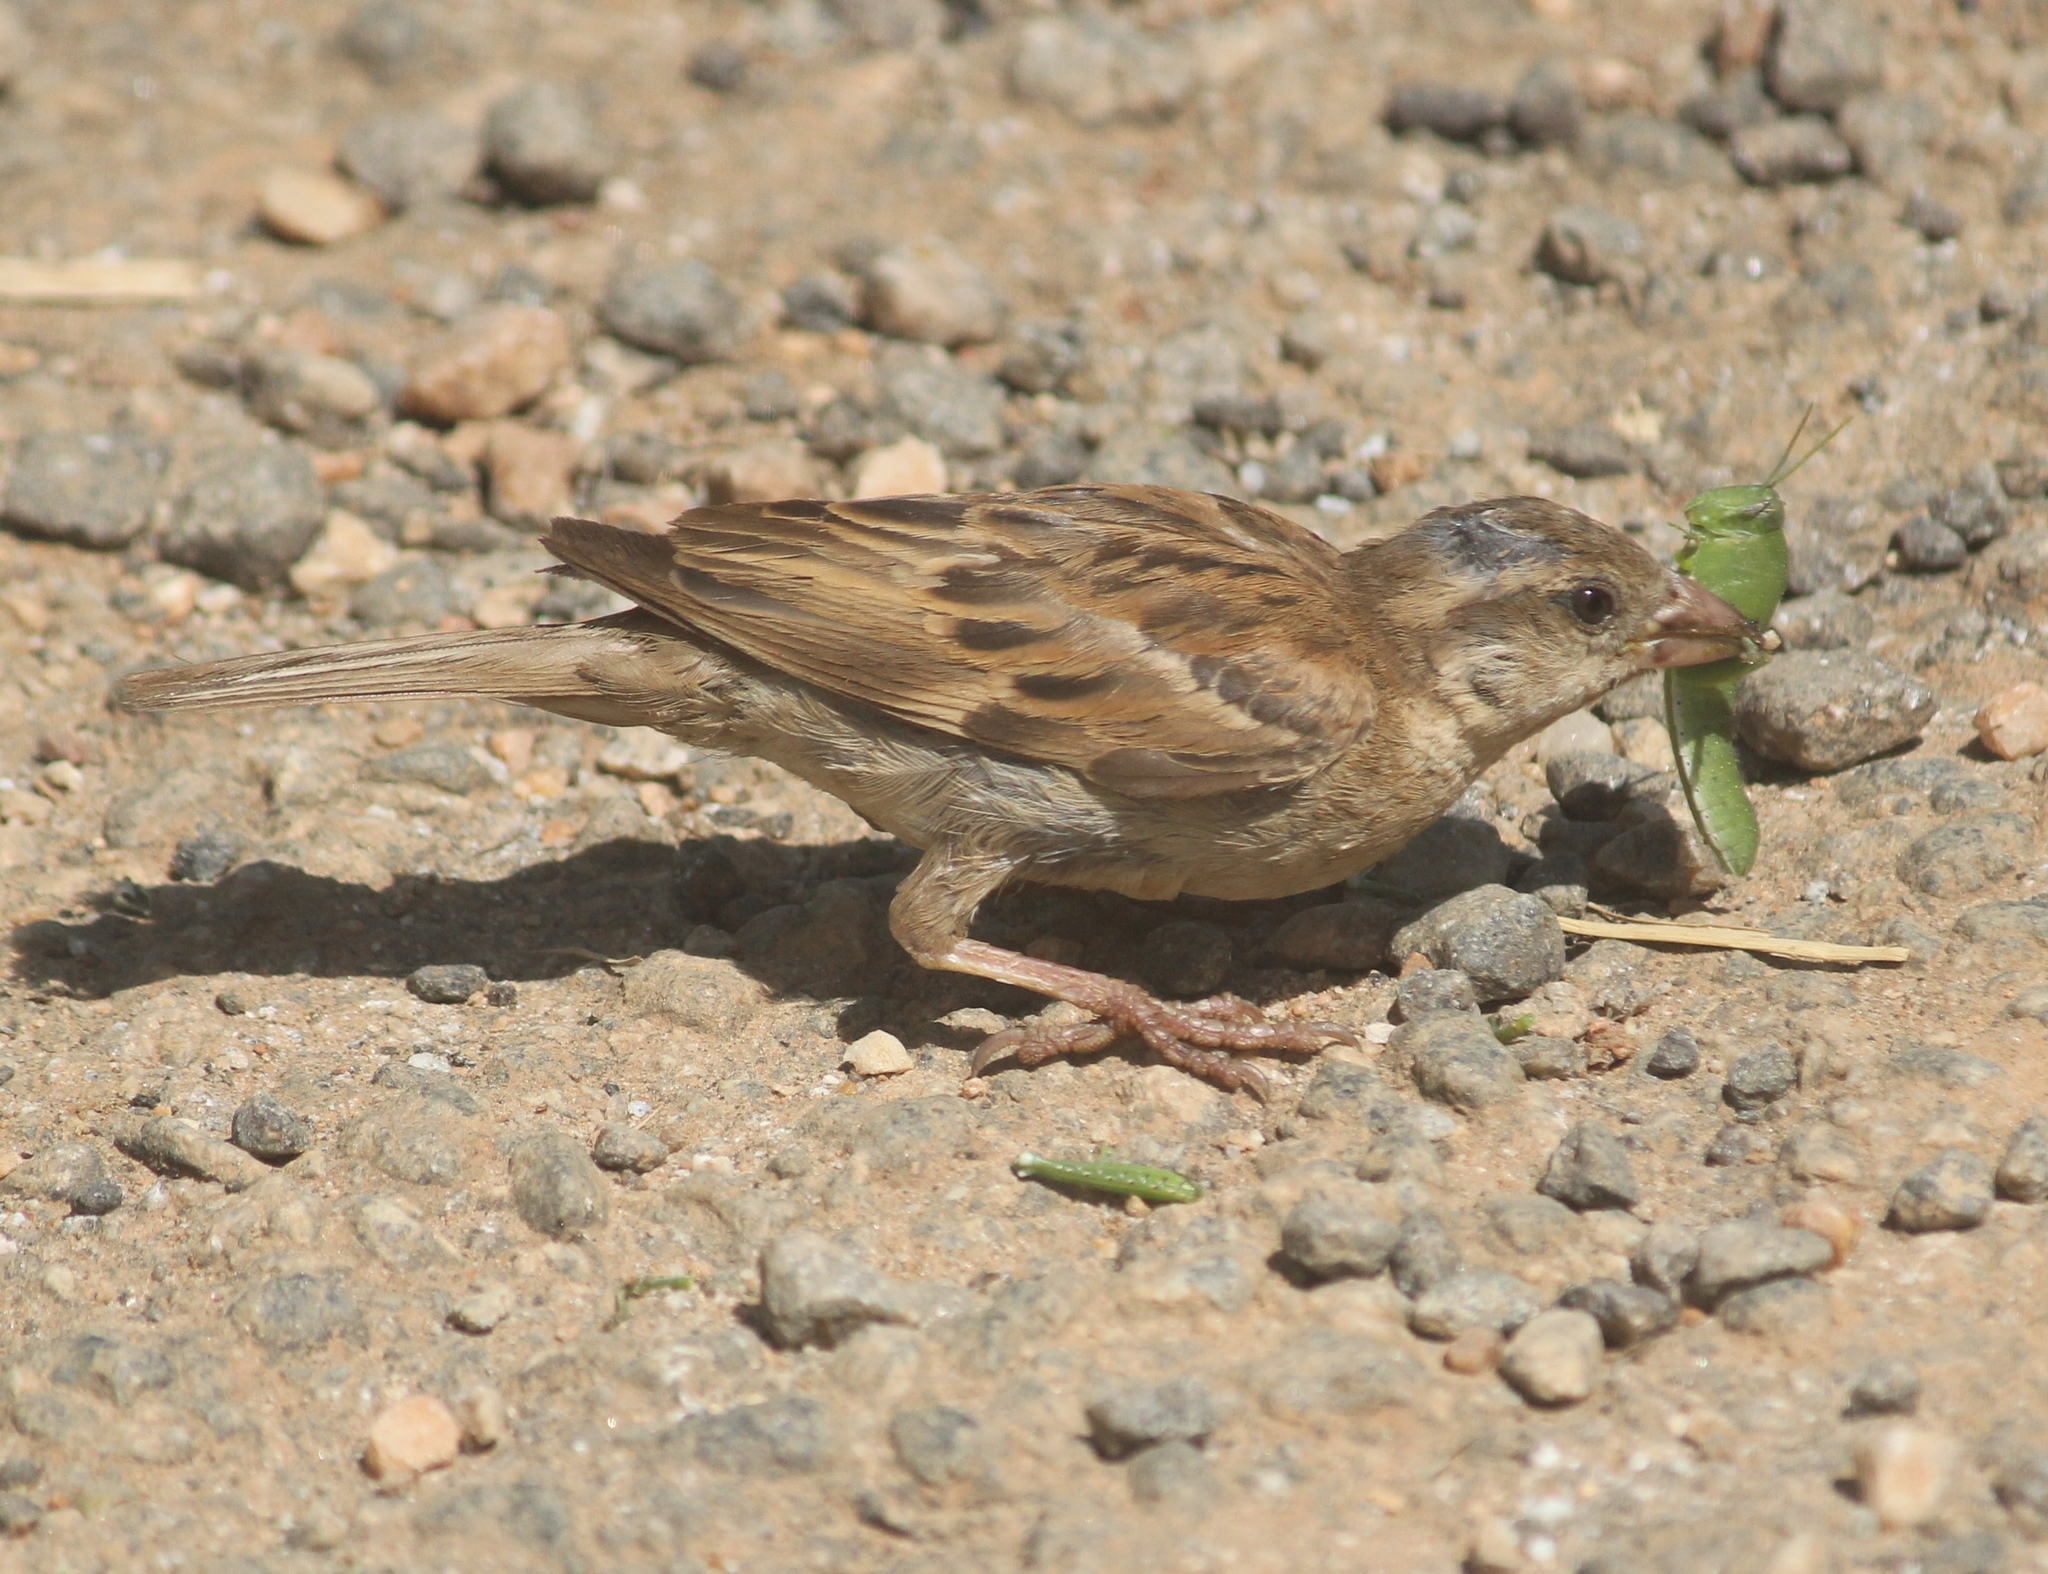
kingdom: Animalia
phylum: Chordata
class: Aves
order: Passeriformes
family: Passeridae
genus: Passer
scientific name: Passer domesticus
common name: House sparrow
